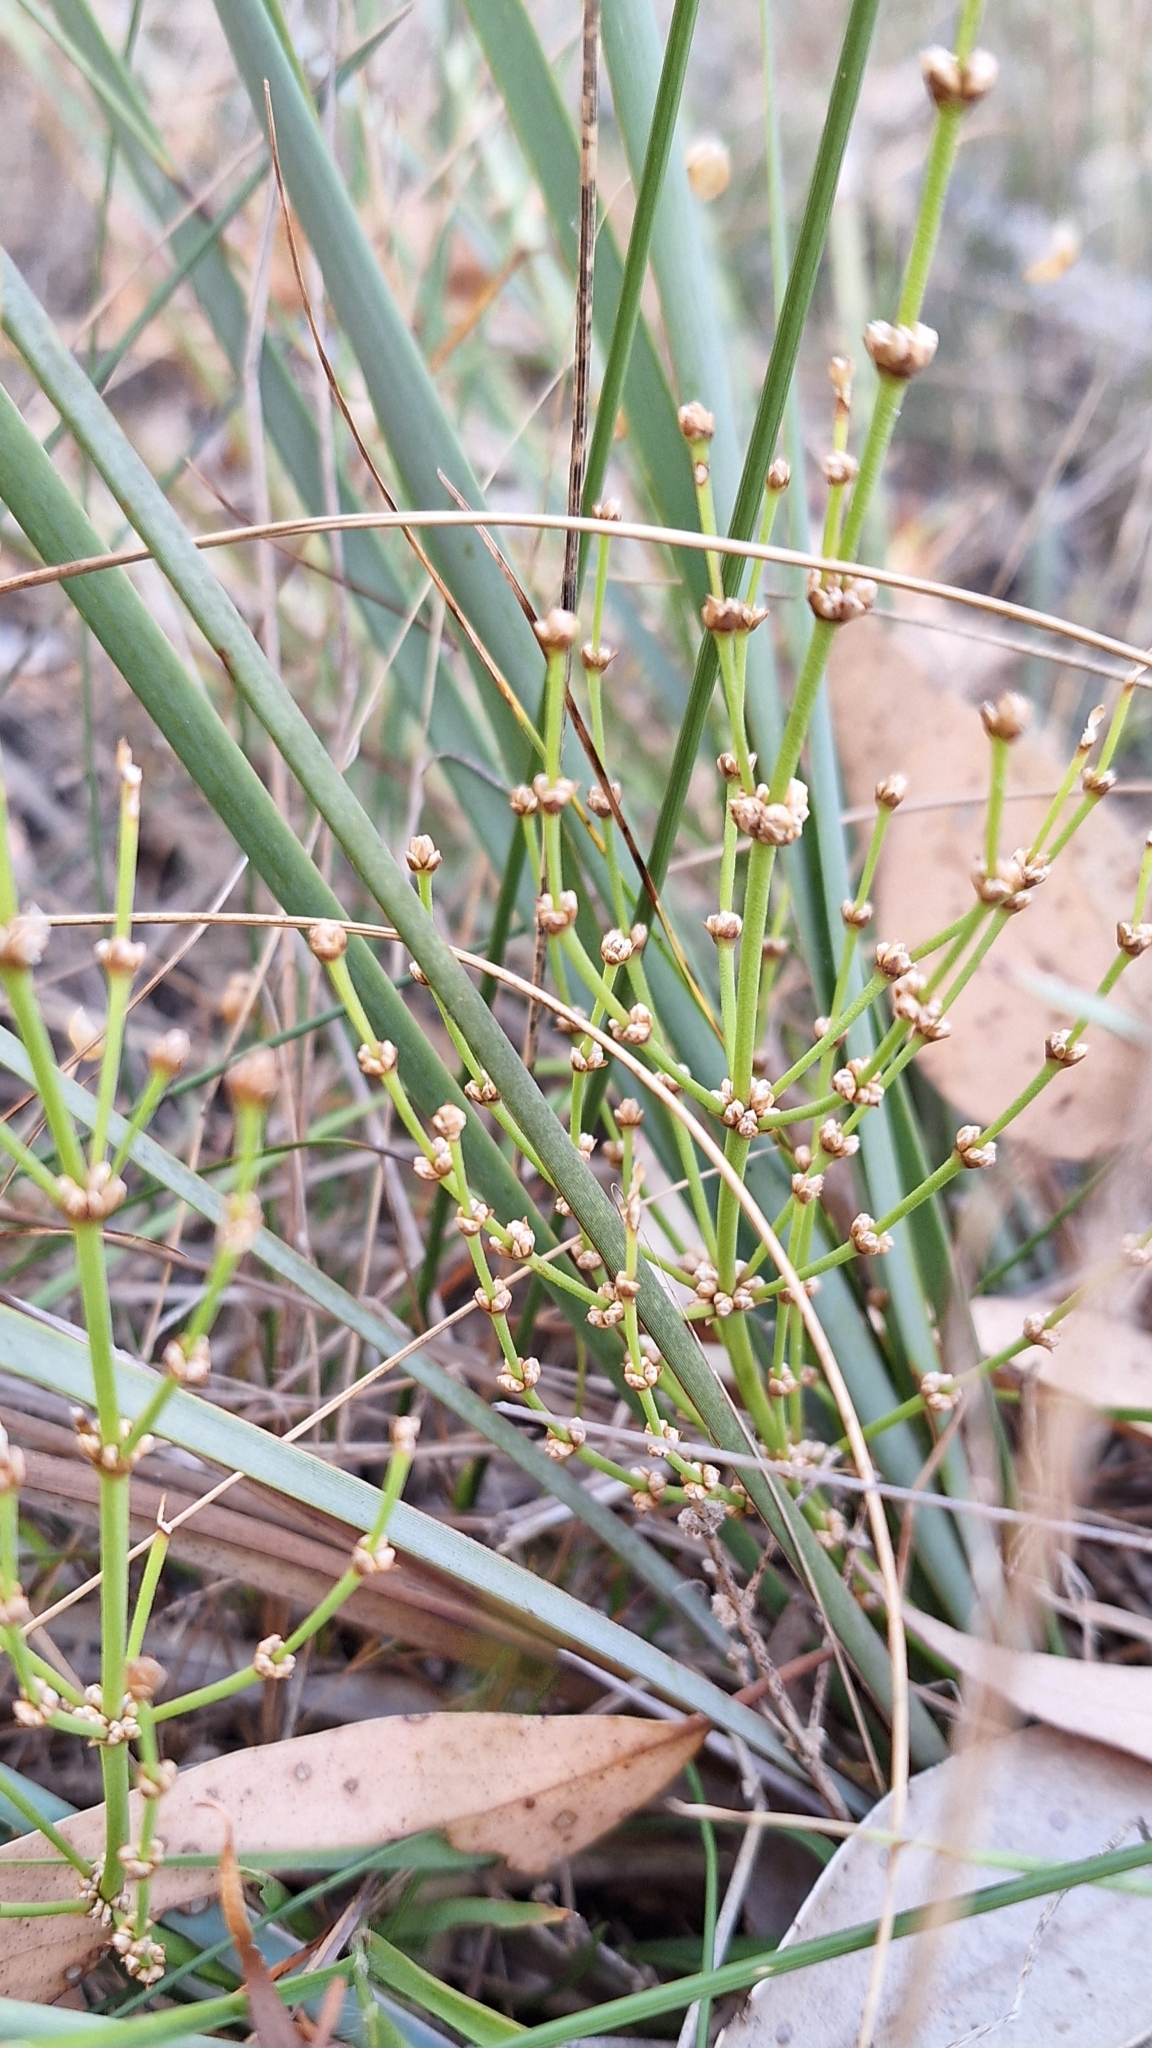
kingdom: Plantae
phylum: Tracheophyta
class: Liliopsida
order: Asparagales
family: Asparagaceae
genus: Lomandra
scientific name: Lomandra multiflora
